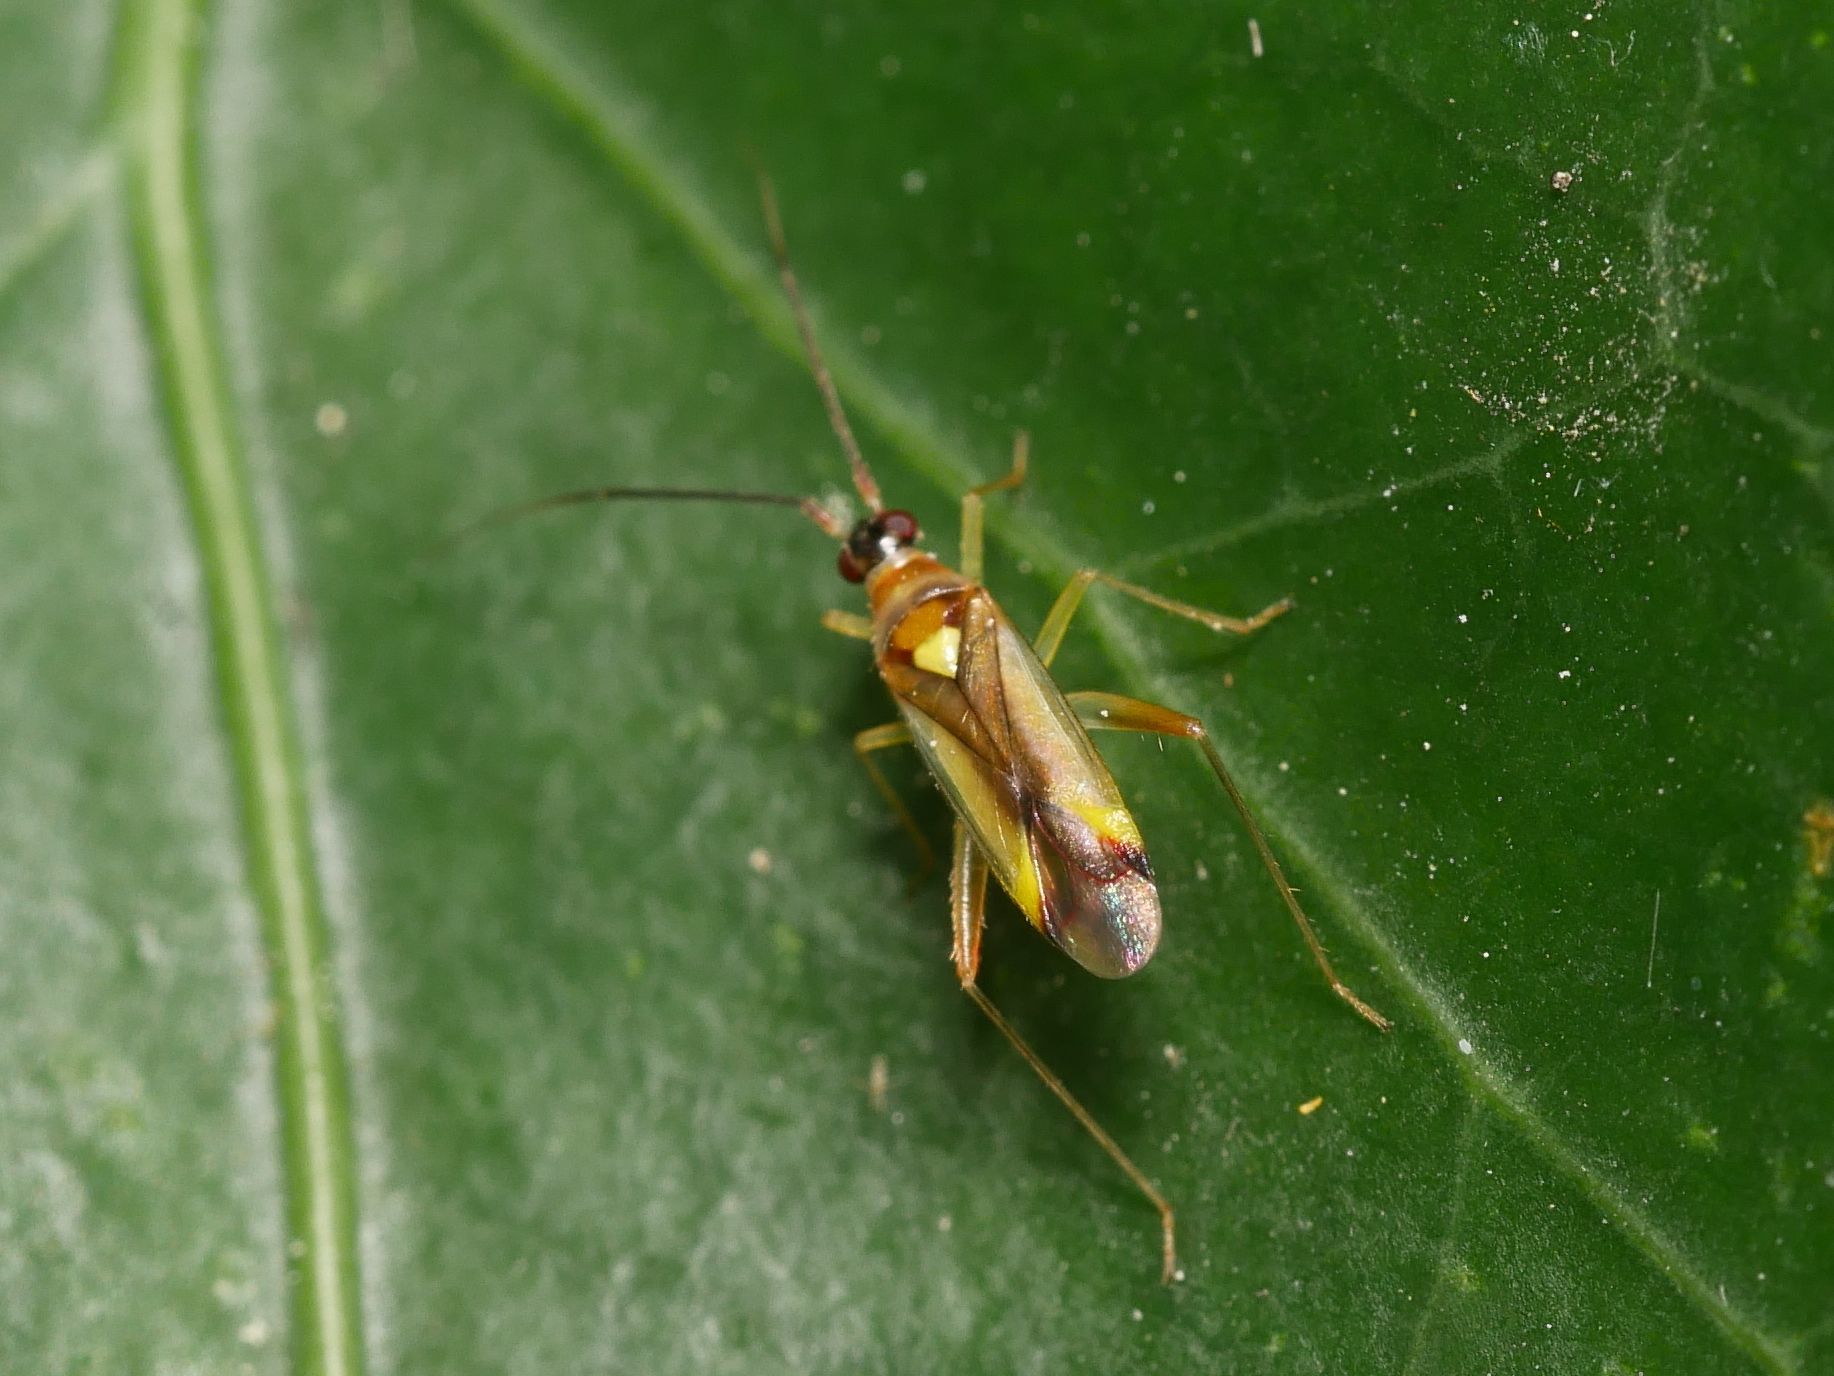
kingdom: Animalia
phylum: Arthropoda
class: Insecta
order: Hemiptera
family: Miridae
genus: Campyloneura
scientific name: Campyloneura virgula
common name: Predatory bug
